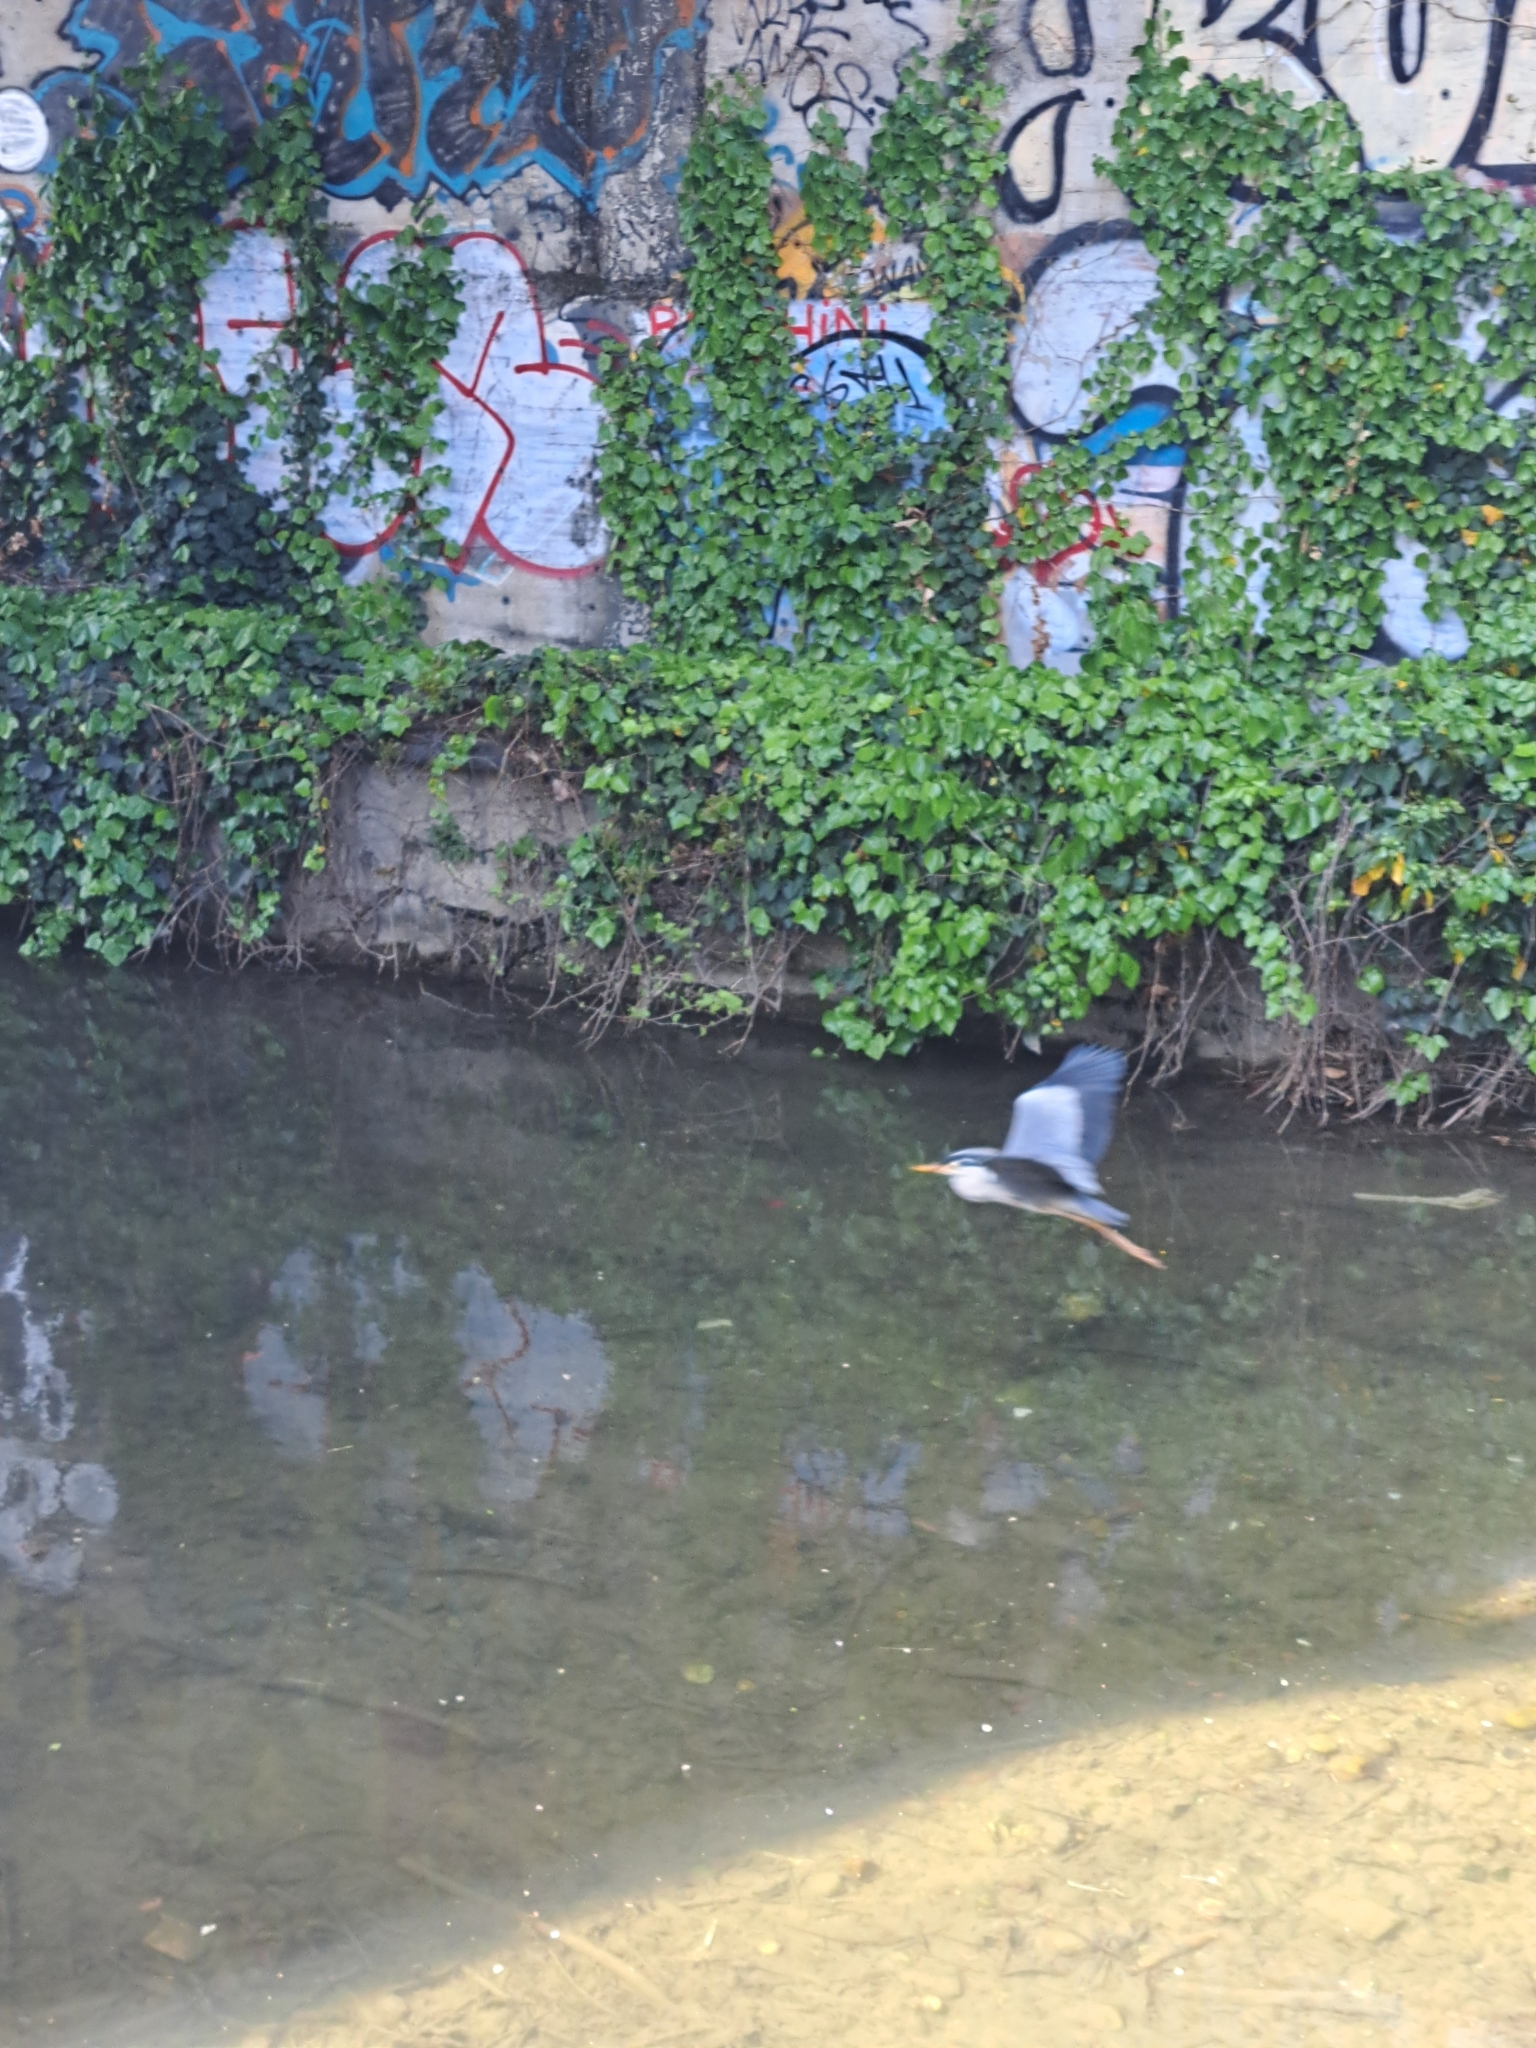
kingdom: Animalia
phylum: Chordata
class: Aves
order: Pelecaniformes
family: Ardeidae
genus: Ardea
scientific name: Ardea cinerea
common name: Grey heron
